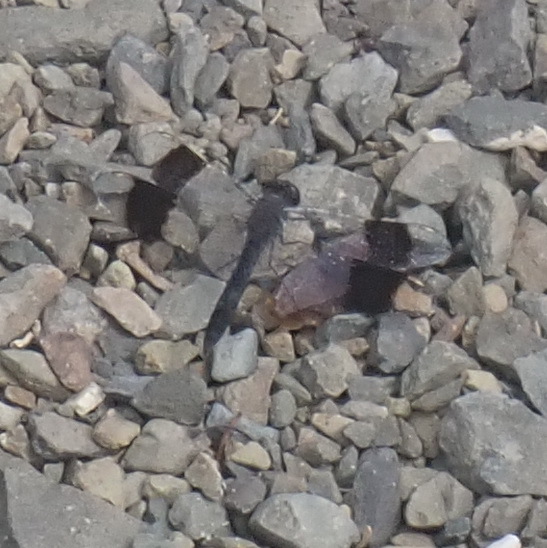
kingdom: Animalia
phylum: Arthropoda
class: Insecta
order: Odonata
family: Libellulidae
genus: Brachythemis
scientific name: Brachythemis leucosticta
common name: Banded groundling
